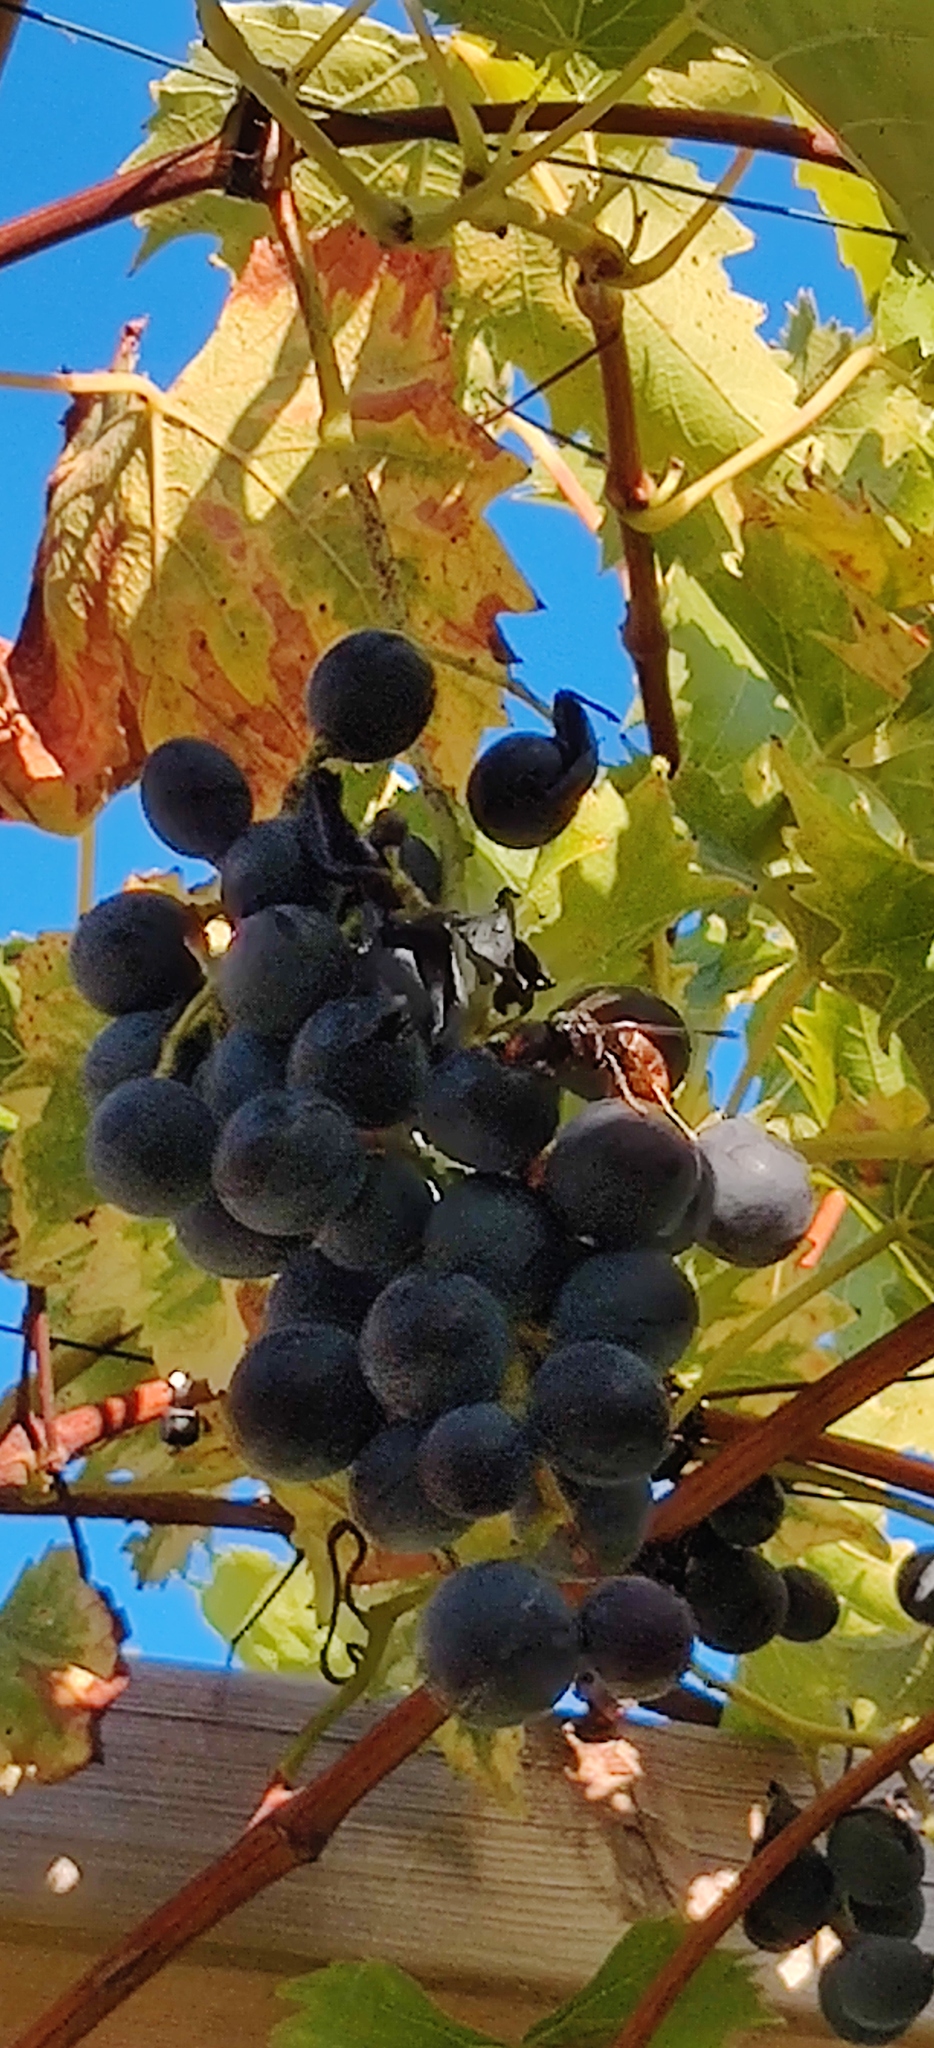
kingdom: Animalia
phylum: Arthropoda
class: Insecta
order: Hymenoptera
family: Vespidae
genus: Vespa
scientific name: Vespa velutina
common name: Asian hornet
